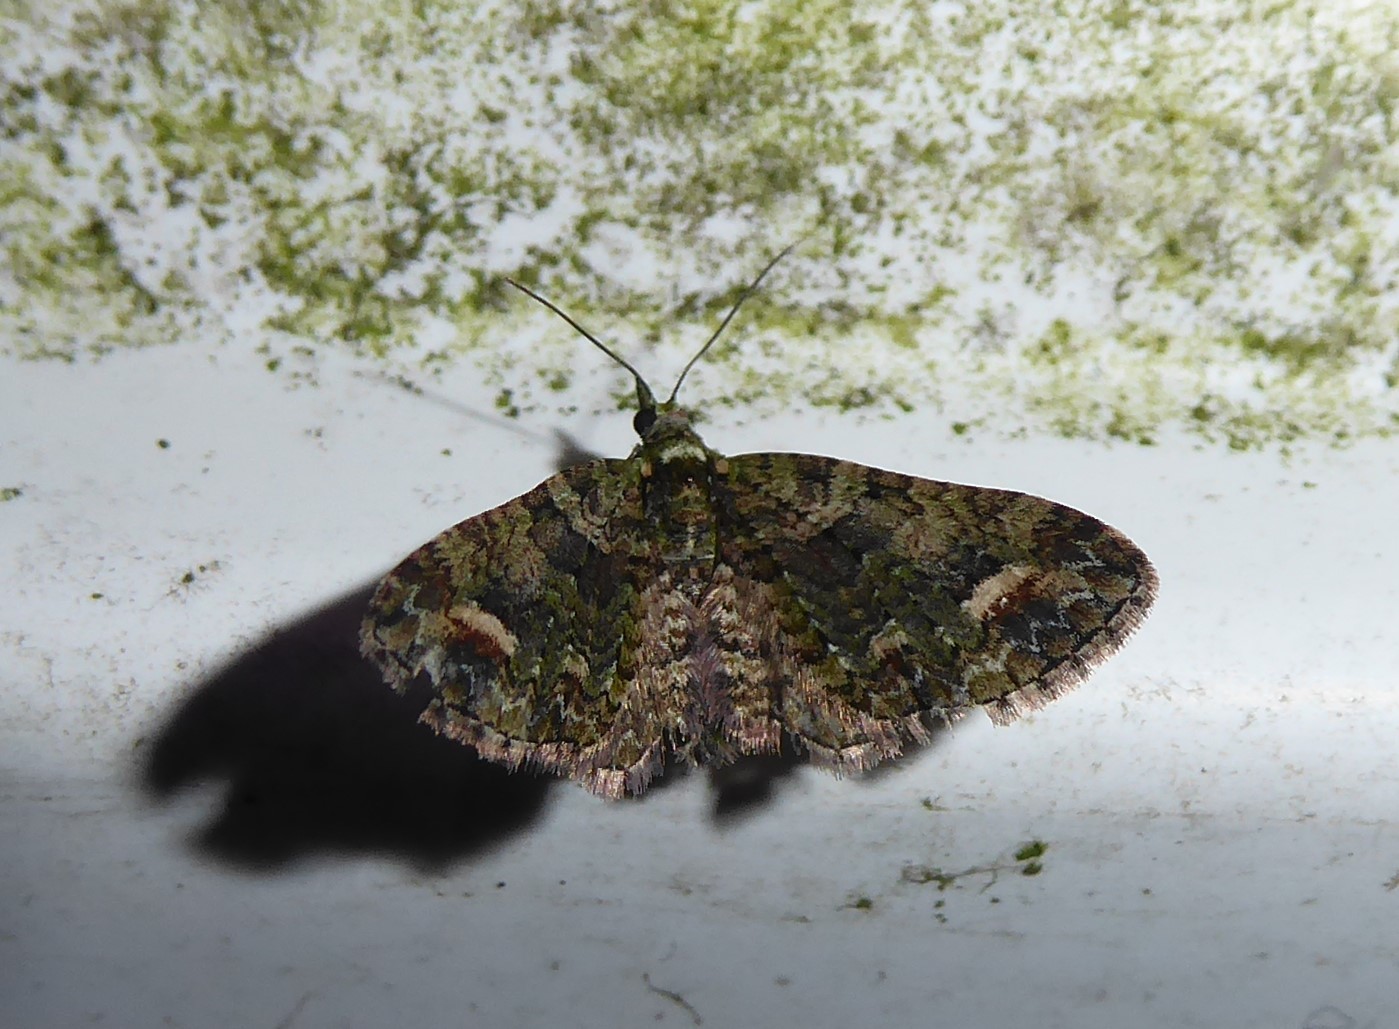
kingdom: Animalia
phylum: Arthropoda
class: Insecta
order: Lepidoptera
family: Geometridae
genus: Idaea
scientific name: Idaea mutanda
